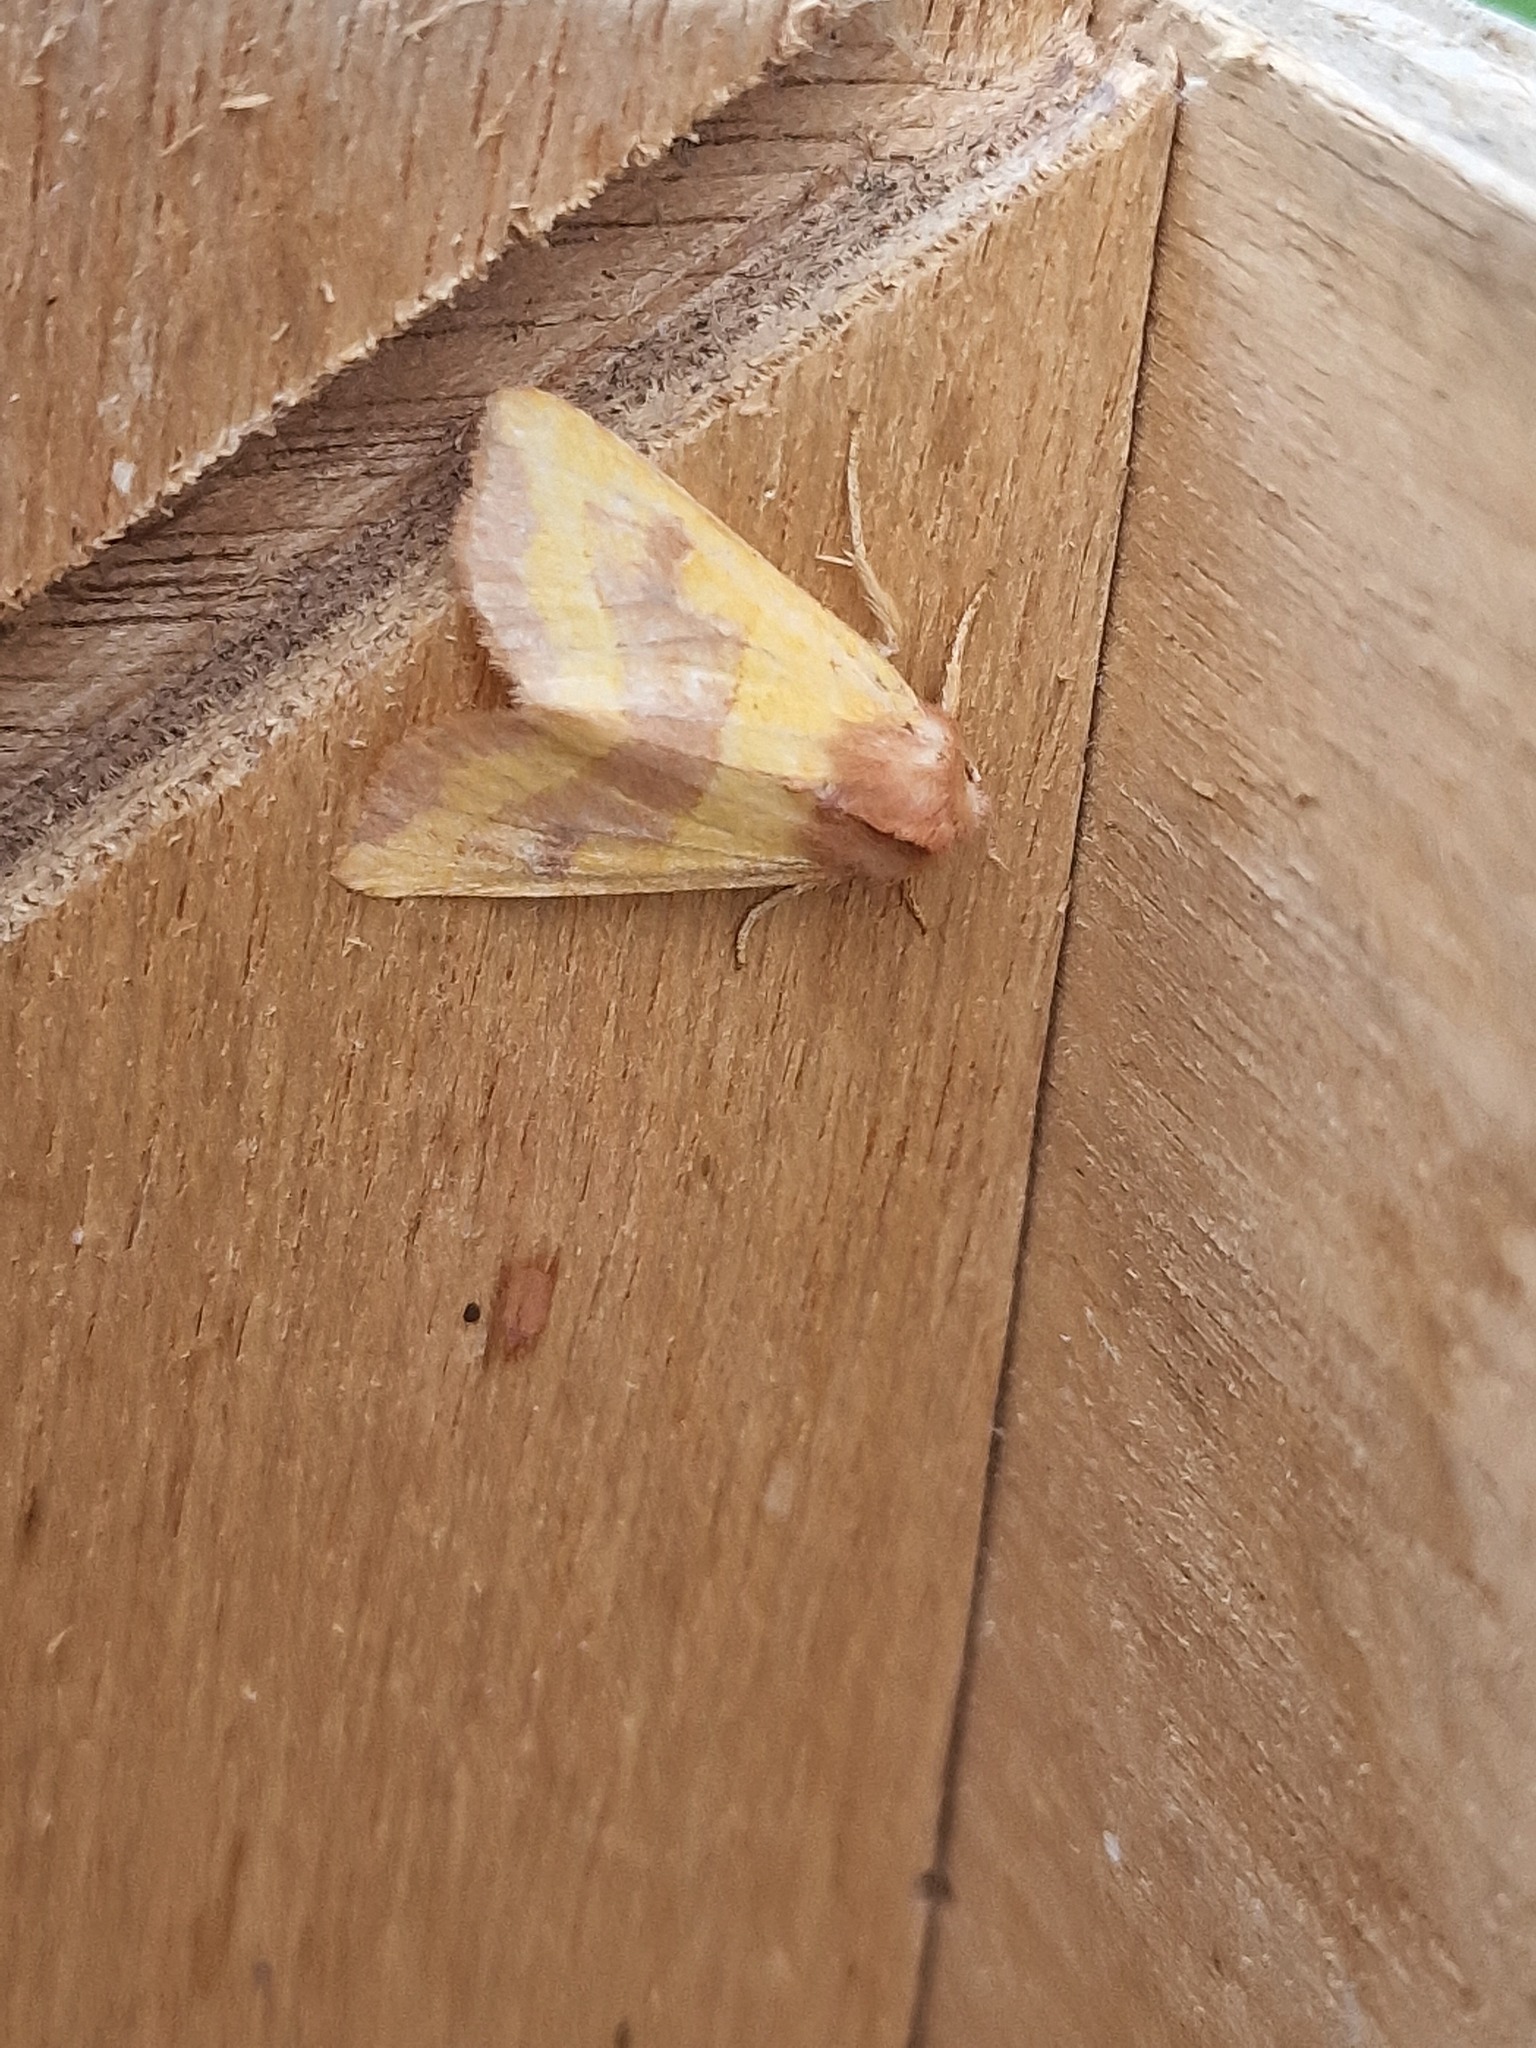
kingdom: Animalia
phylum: Arthropoda
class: Insecta
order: Lepidoptera
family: Noctuidae
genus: Atethmia
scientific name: Atethmia centrago
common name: Centre-barred sallow
